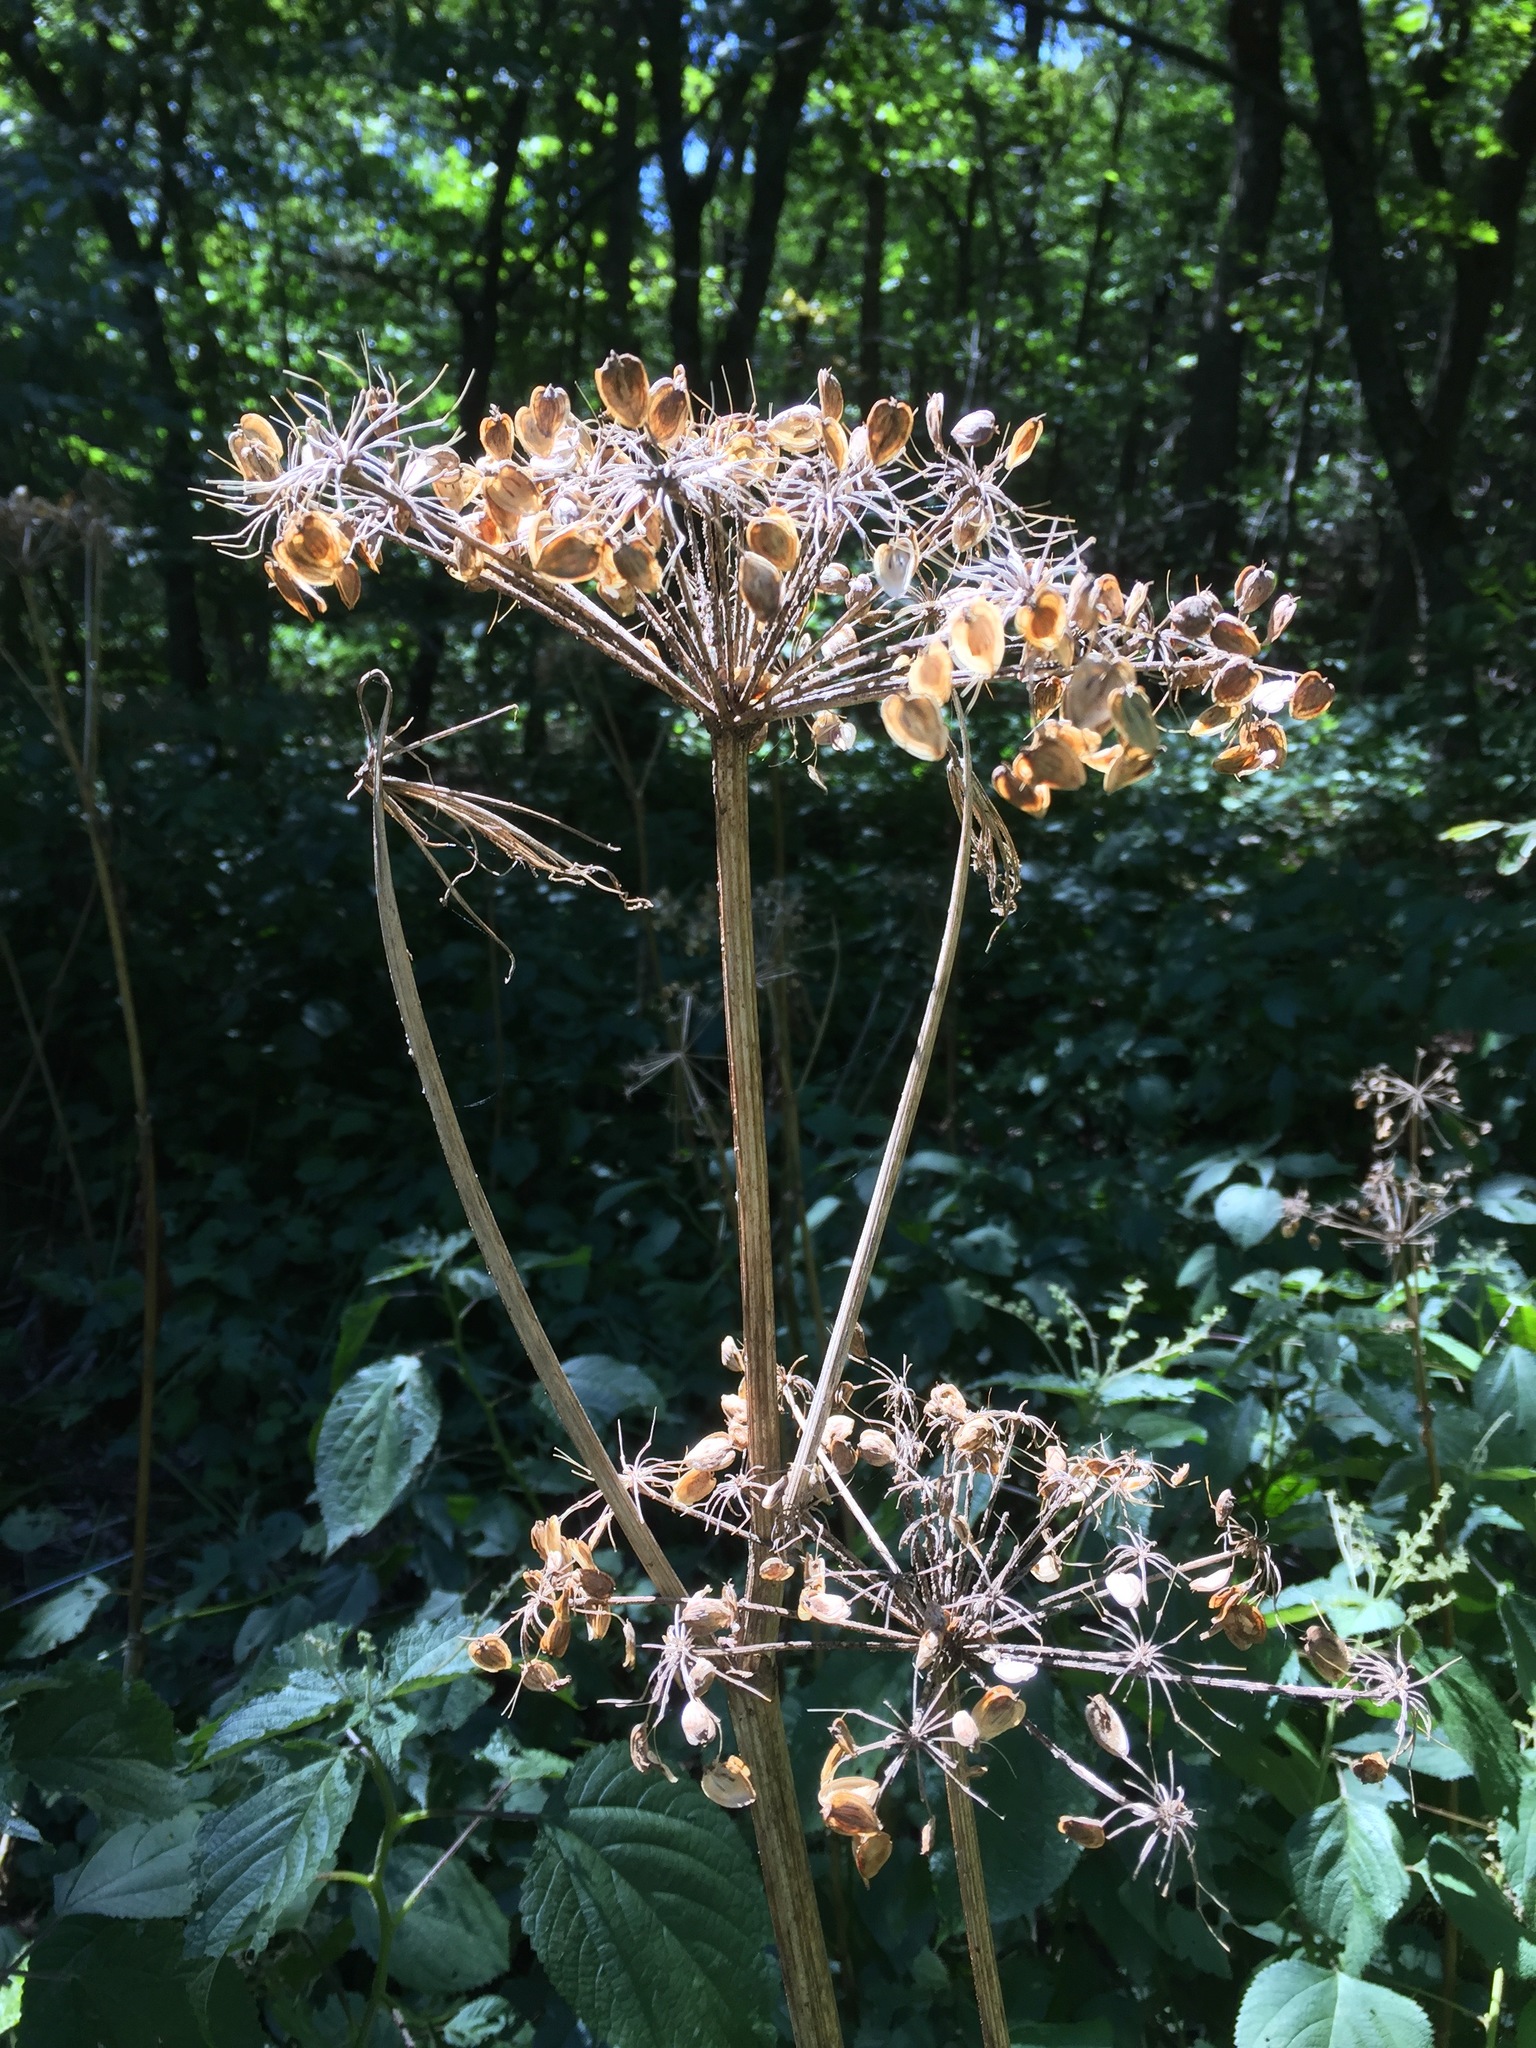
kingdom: Plantae
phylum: Tracheophyta
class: Magnoliopsida
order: Apiales
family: Apiaceae
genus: Heracleum
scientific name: Heracleum maximum
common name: American cow parsnip
